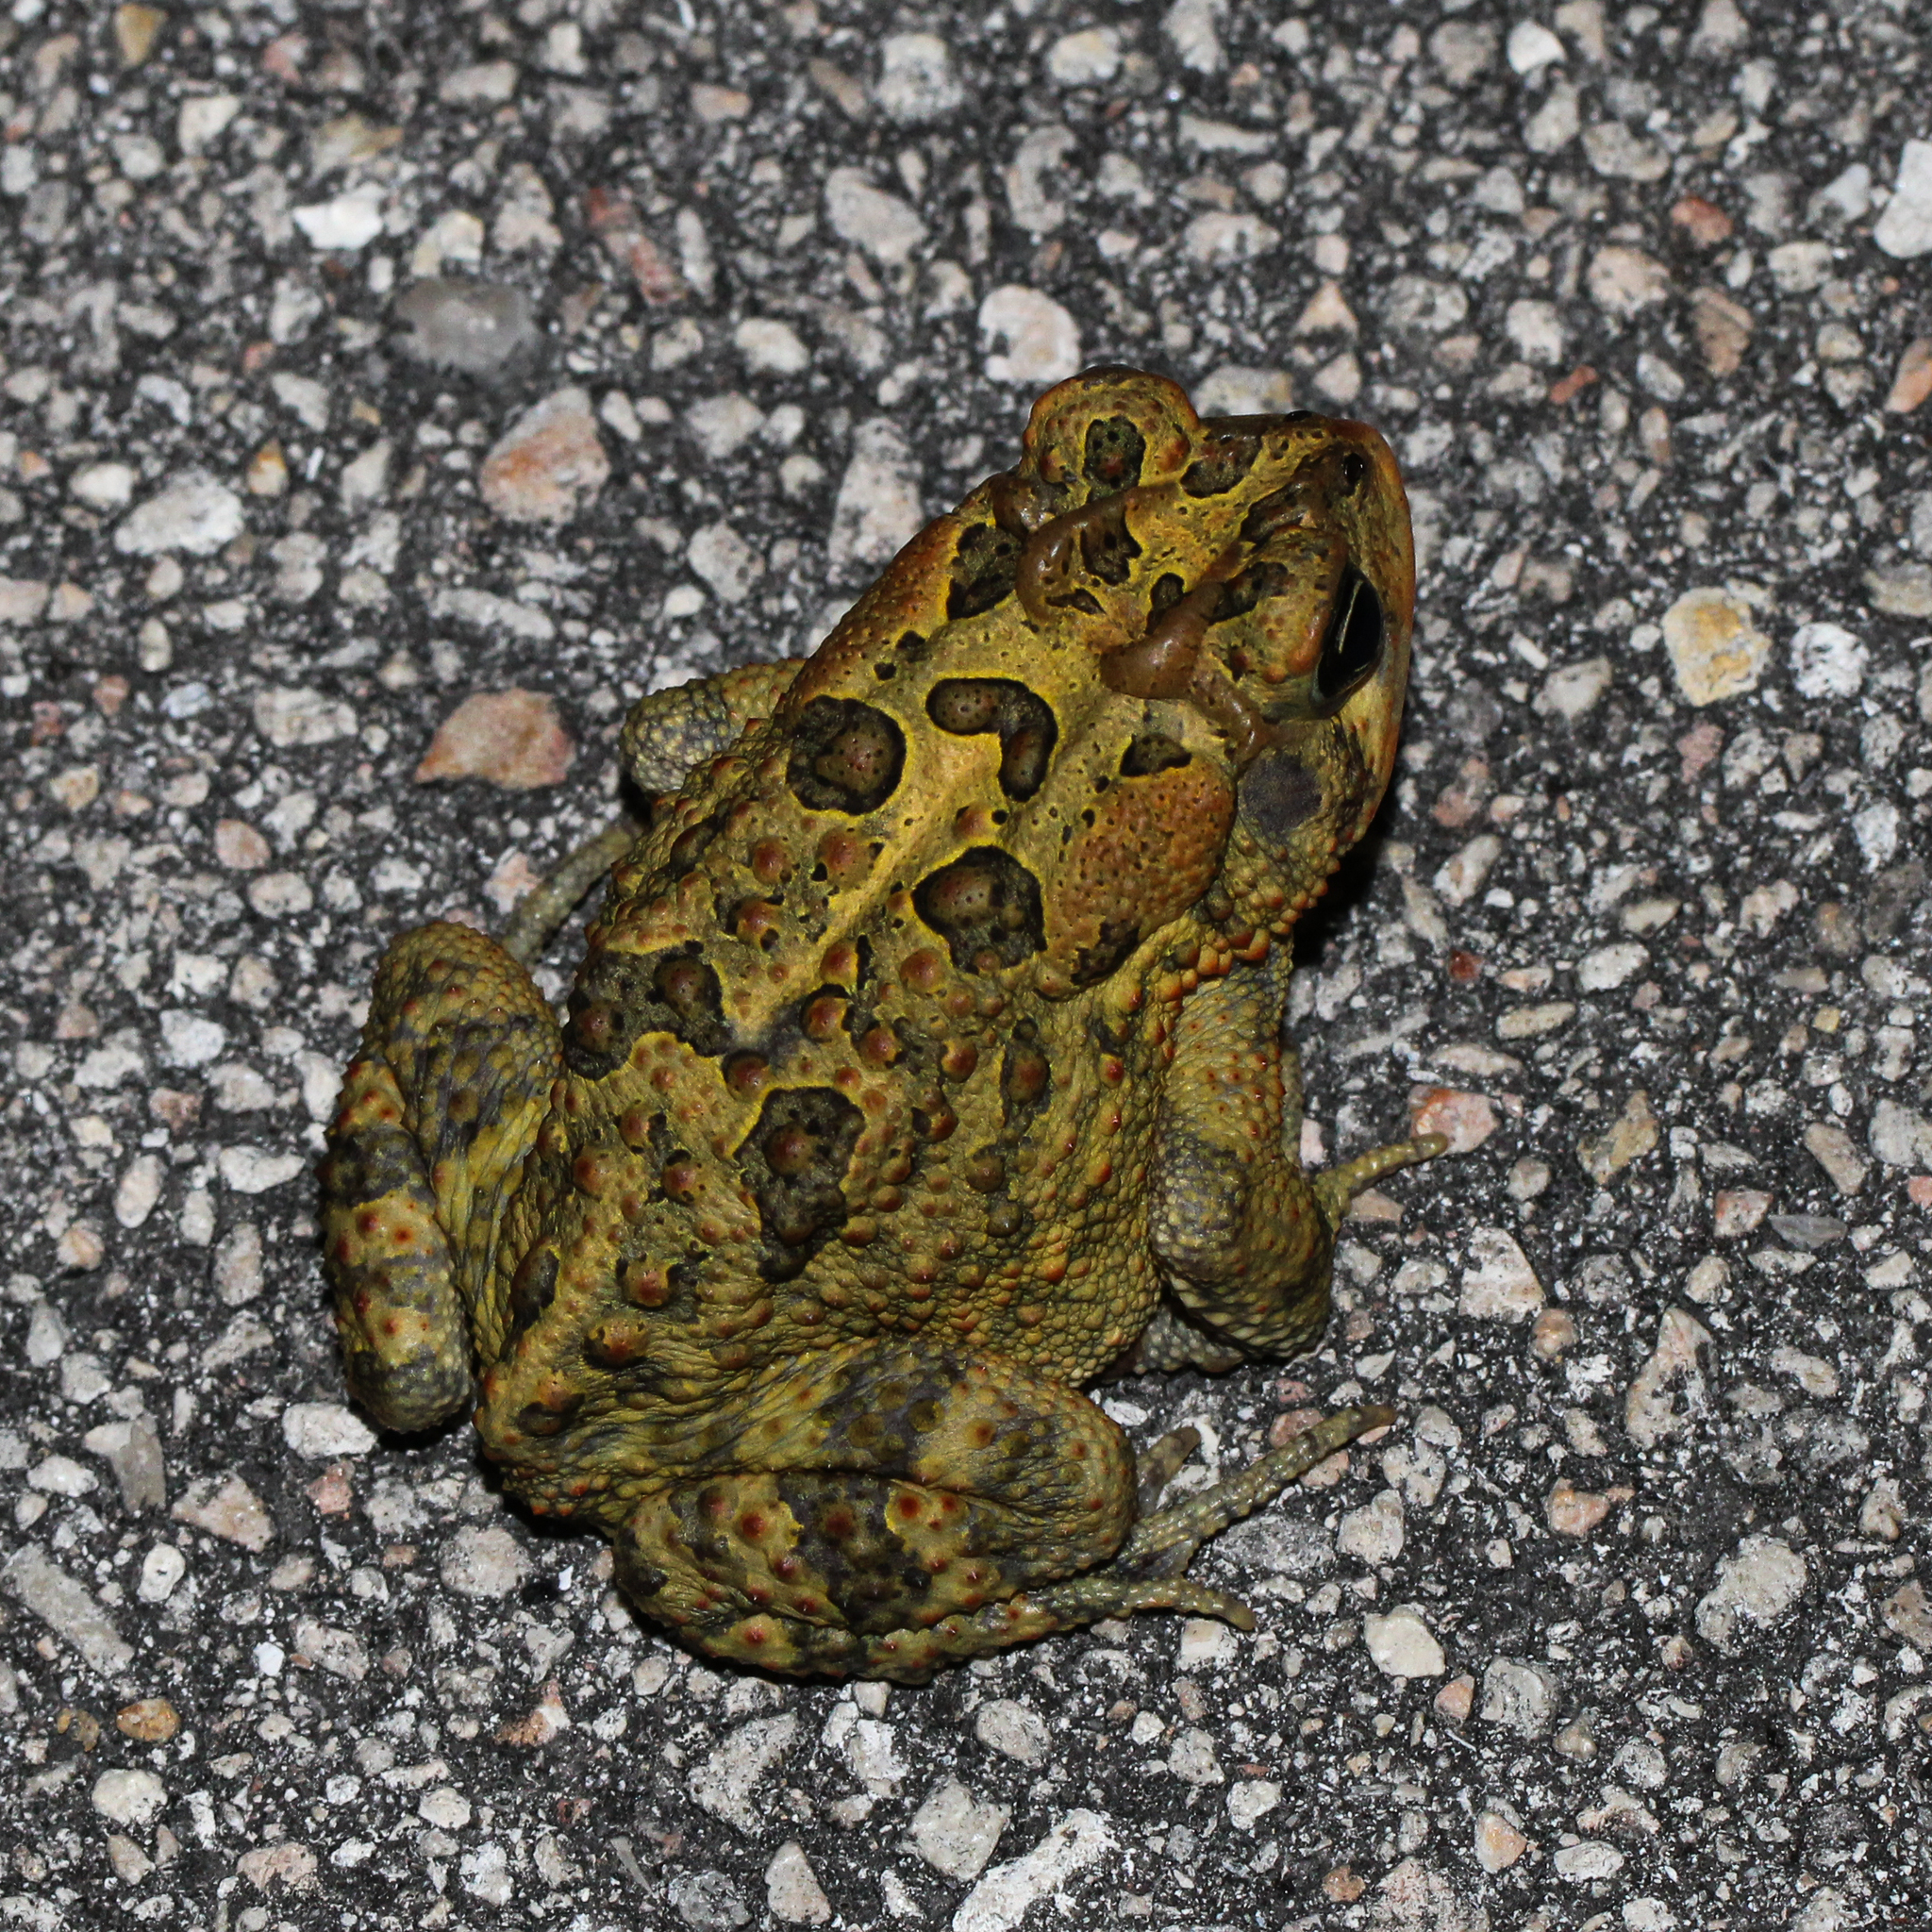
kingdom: Animalia
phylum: Chordata
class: Amphibia
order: Anura
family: Bufonidae
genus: Anaxyrus
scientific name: Anaxyrus terrestris
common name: Southern toad
